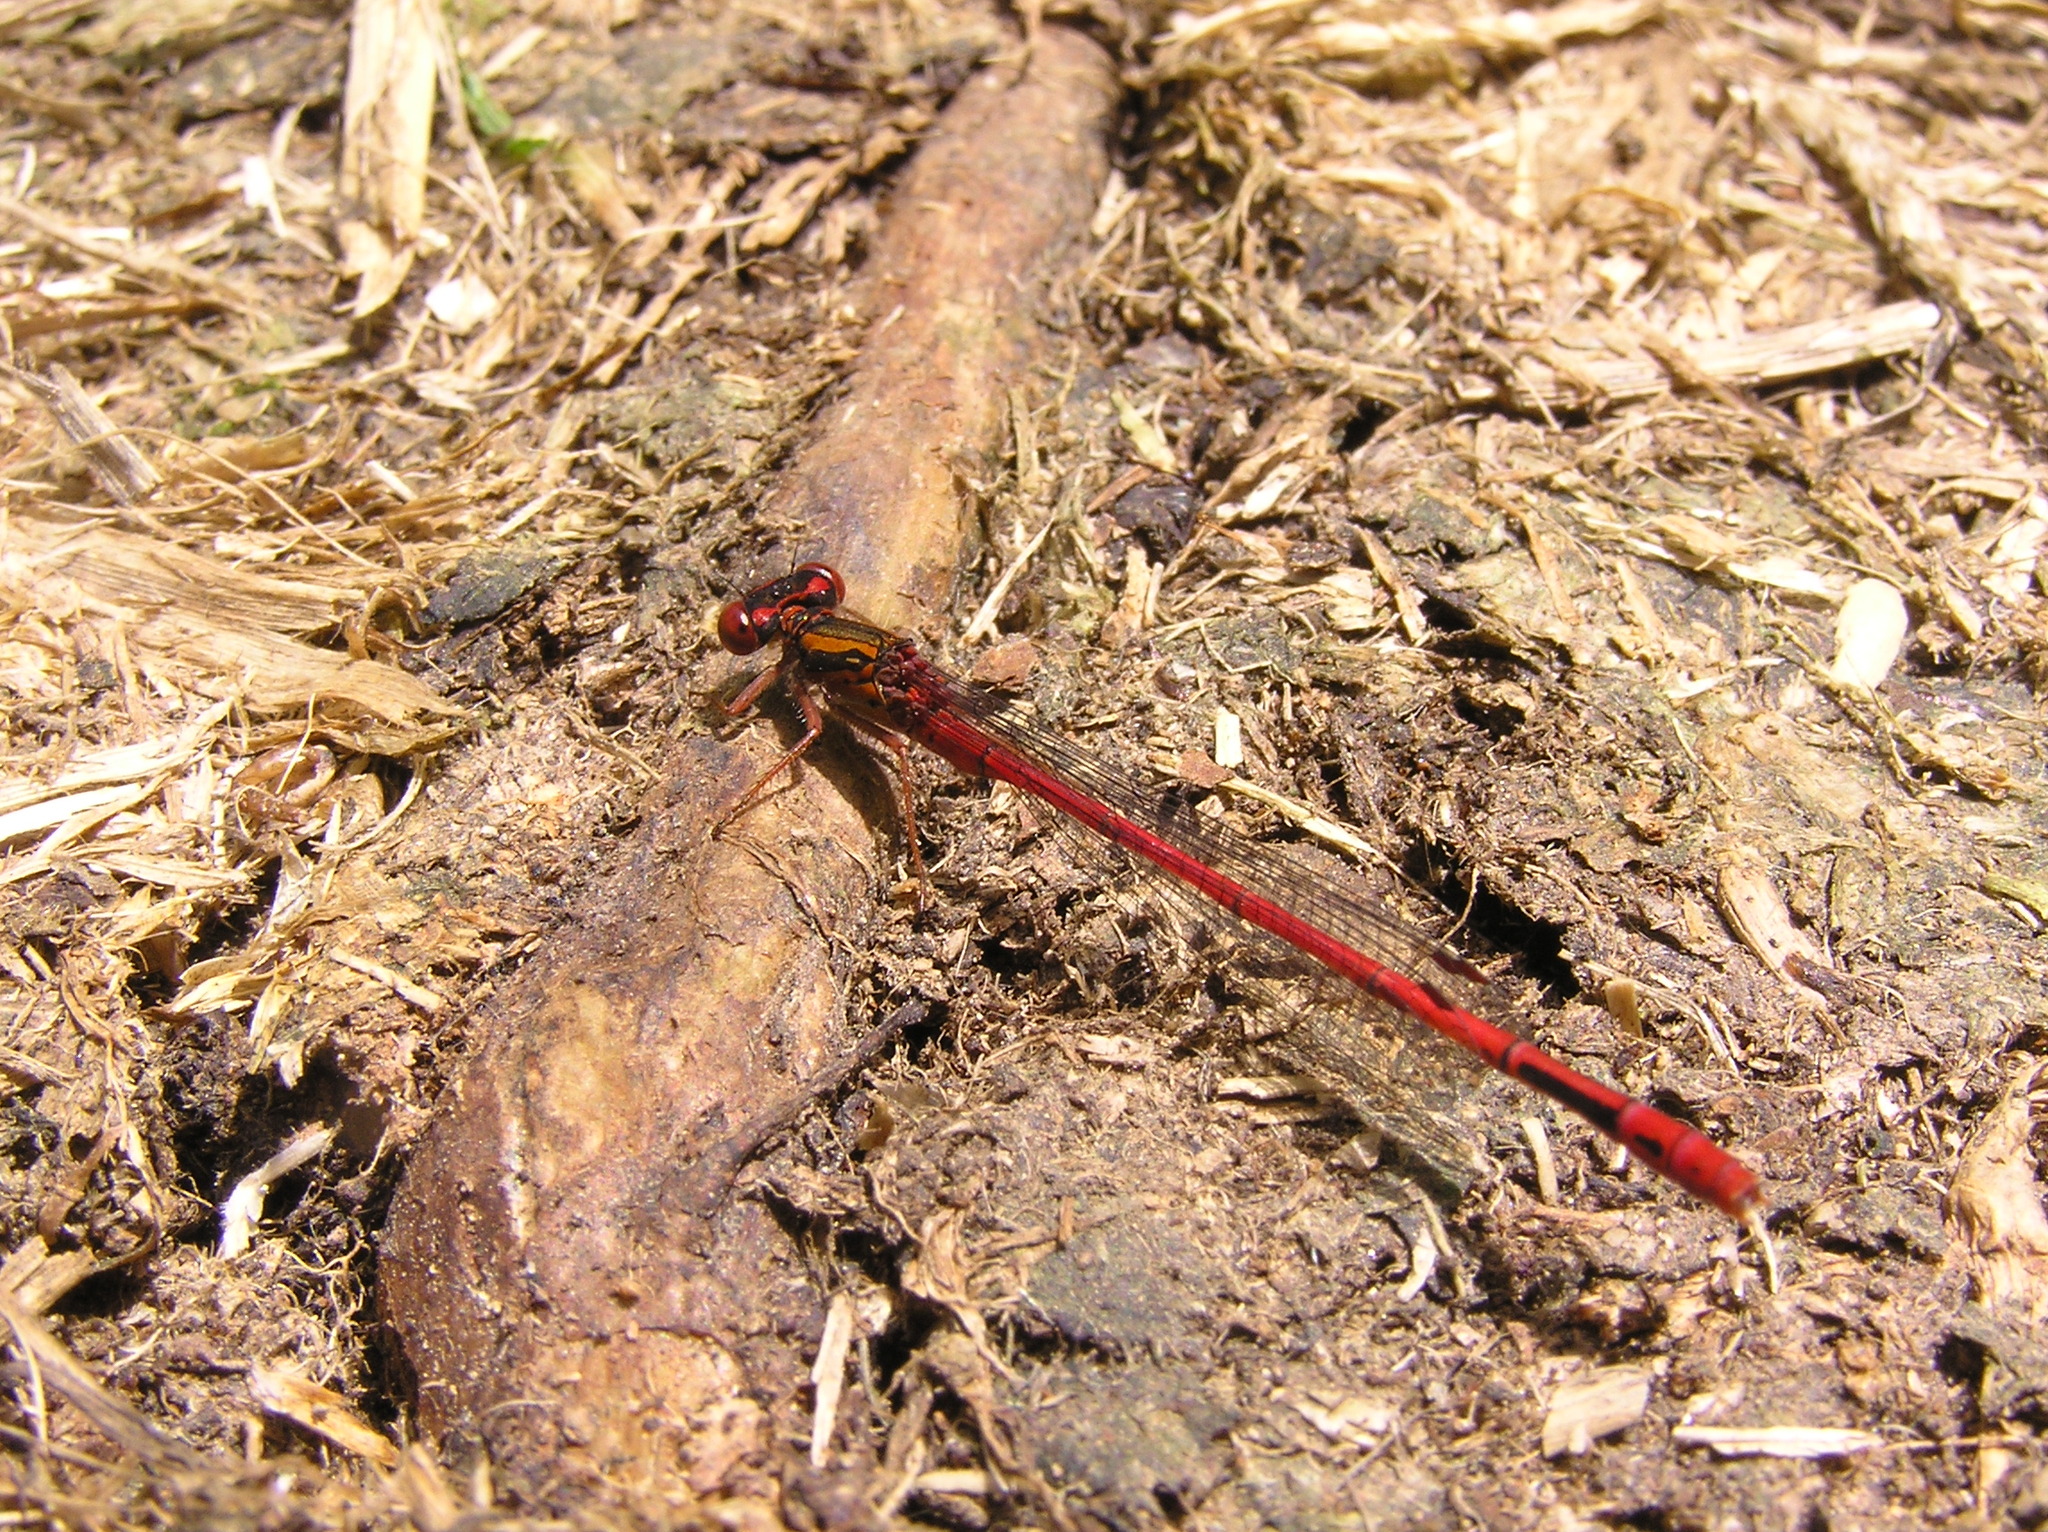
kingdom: Animalia
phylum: Arthropoda
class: Insecta
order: Odonata
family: Coenagrionidae
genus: Xanthocnemis
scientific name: Xanthocnemis zealandica
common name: Common redcoat damselfly
